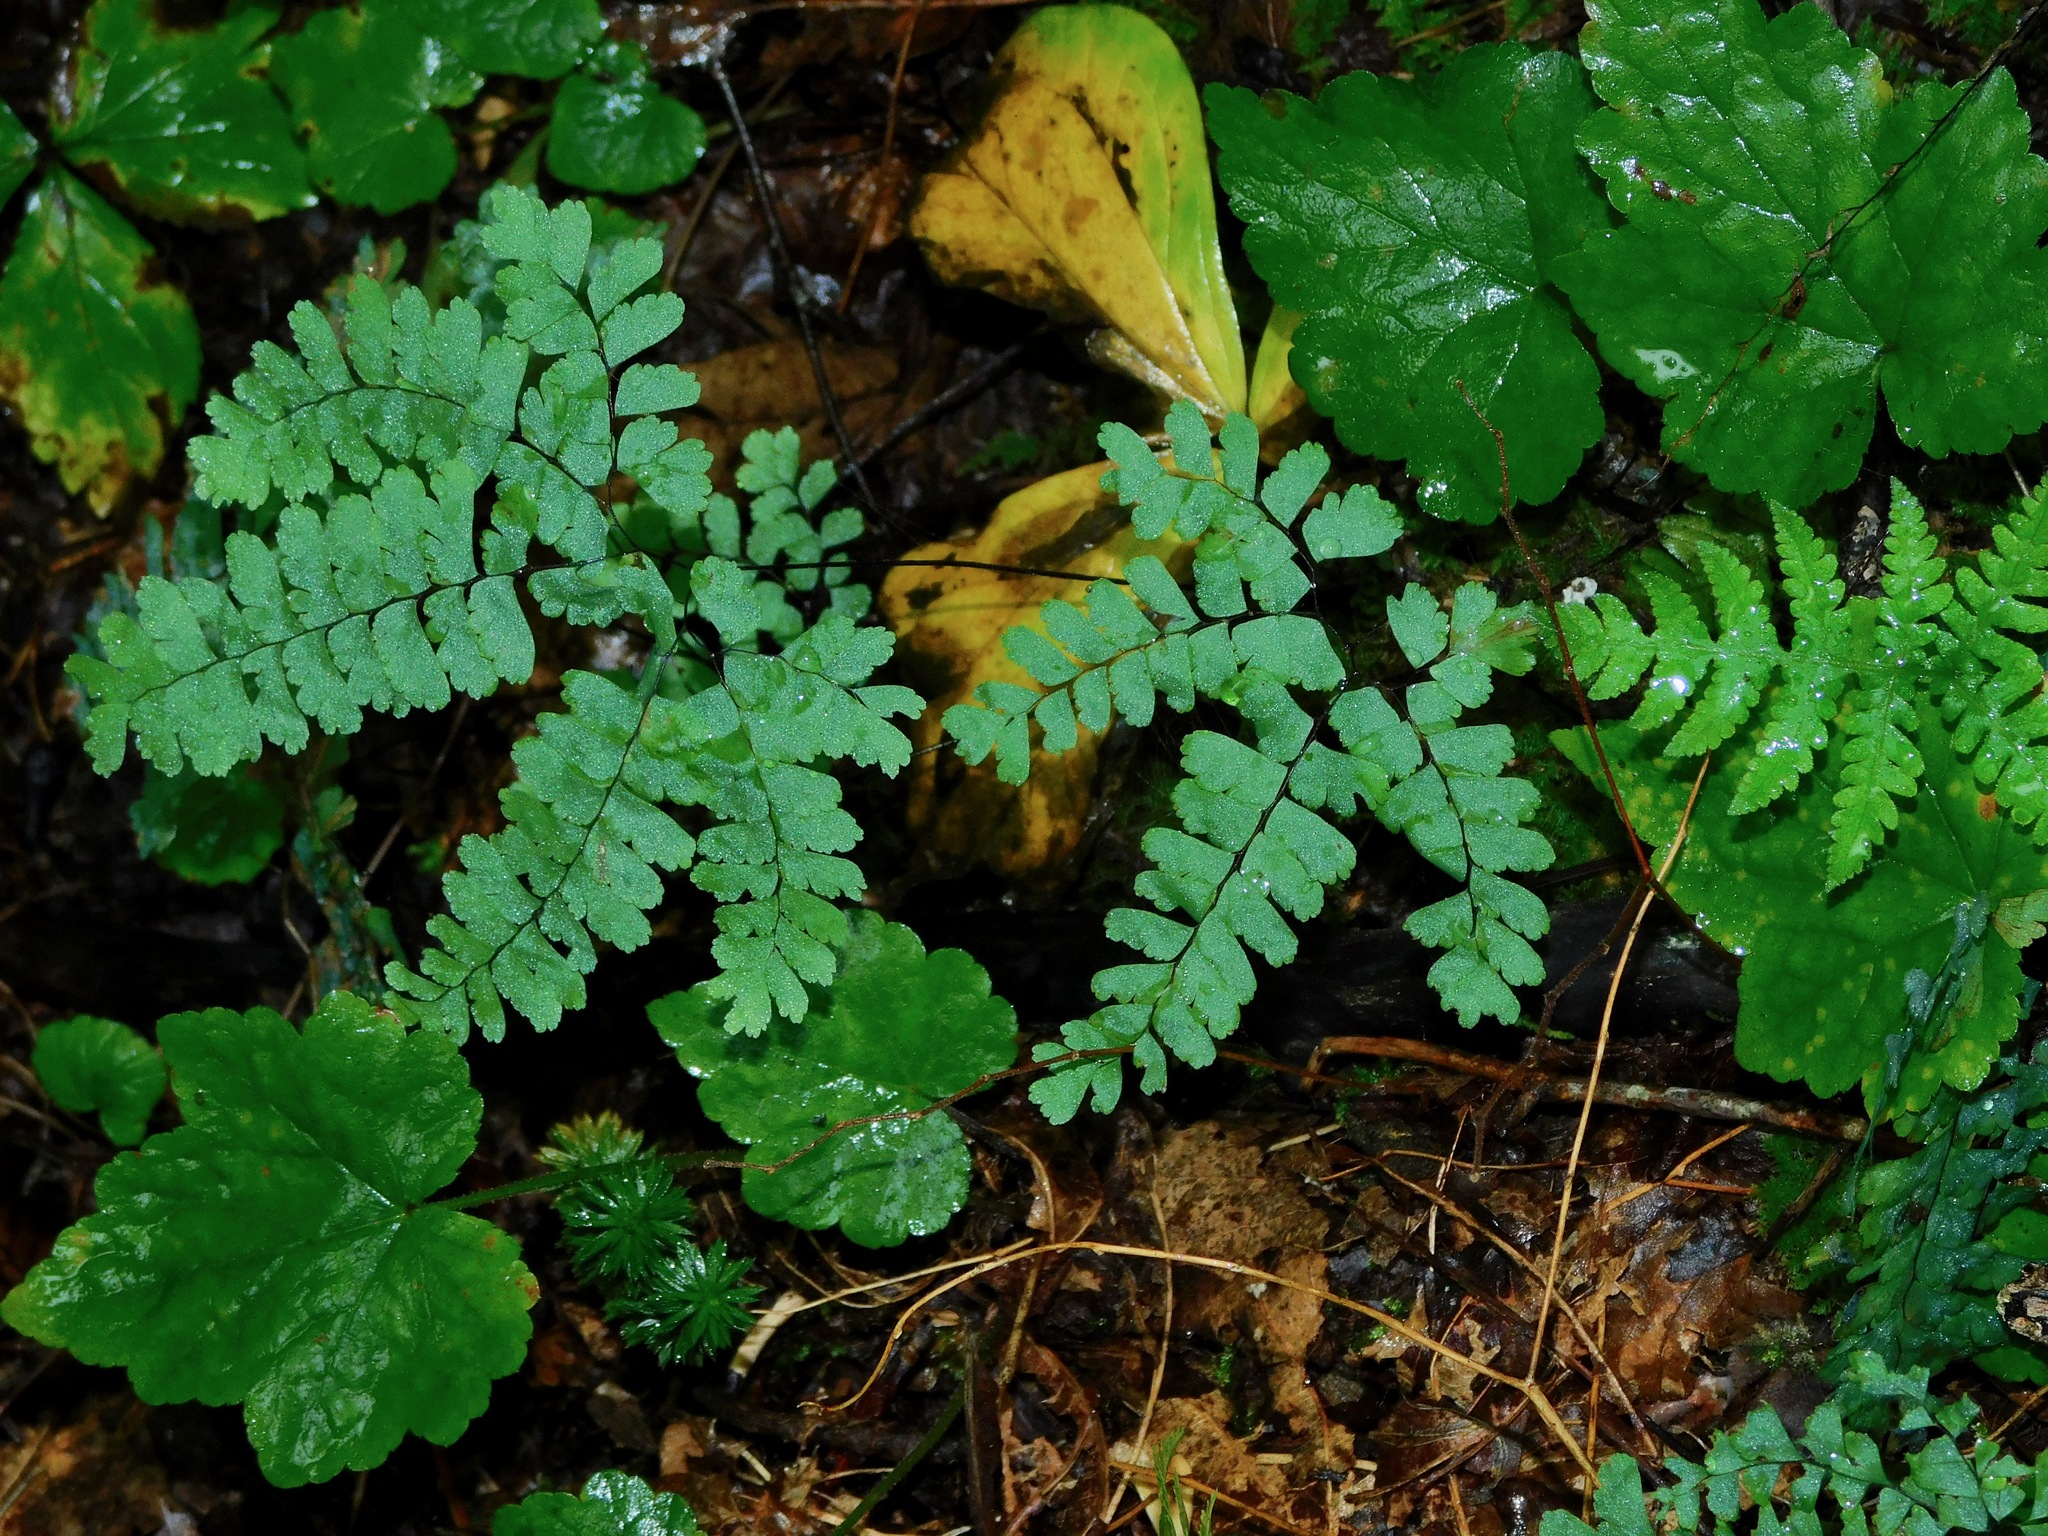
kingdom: Plantae
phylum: Tracheophyta
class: Polypodiopsida
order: Polypodiales
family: Pteridaceae
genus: Adiantum
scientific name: Adiantum pedatum
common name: Five-finger fern
